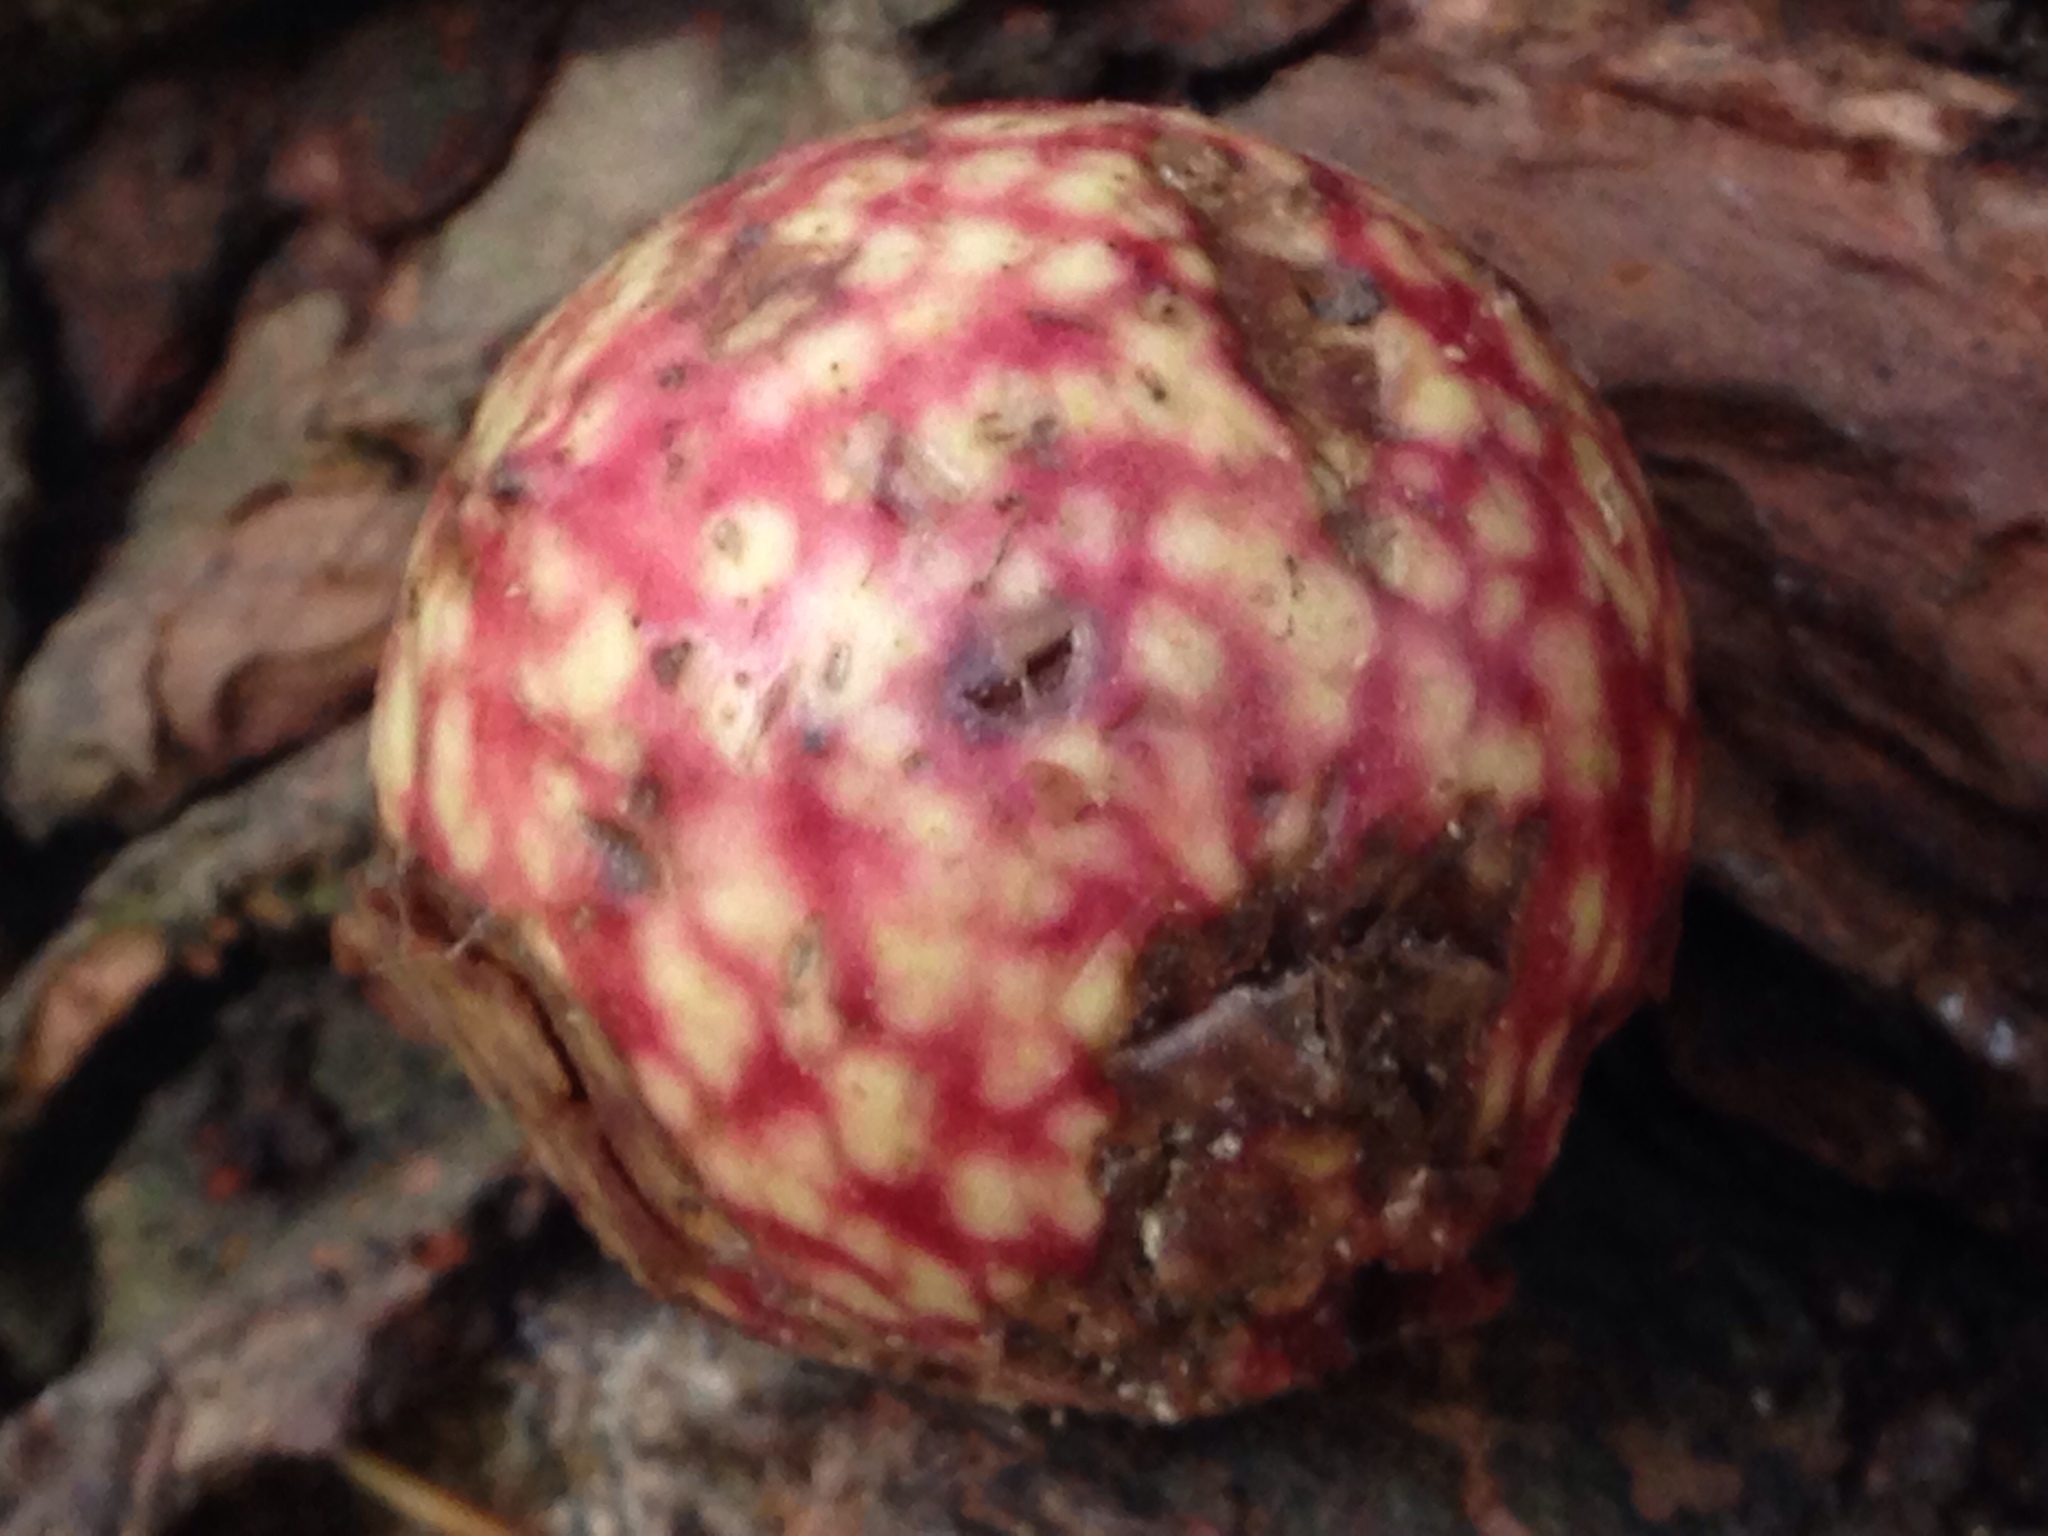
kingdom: Animalia
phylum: Arthropoda
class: Insecta
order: Hymenoptera
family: Cynipidae
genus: Amphibolips
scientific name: Amphibolips
